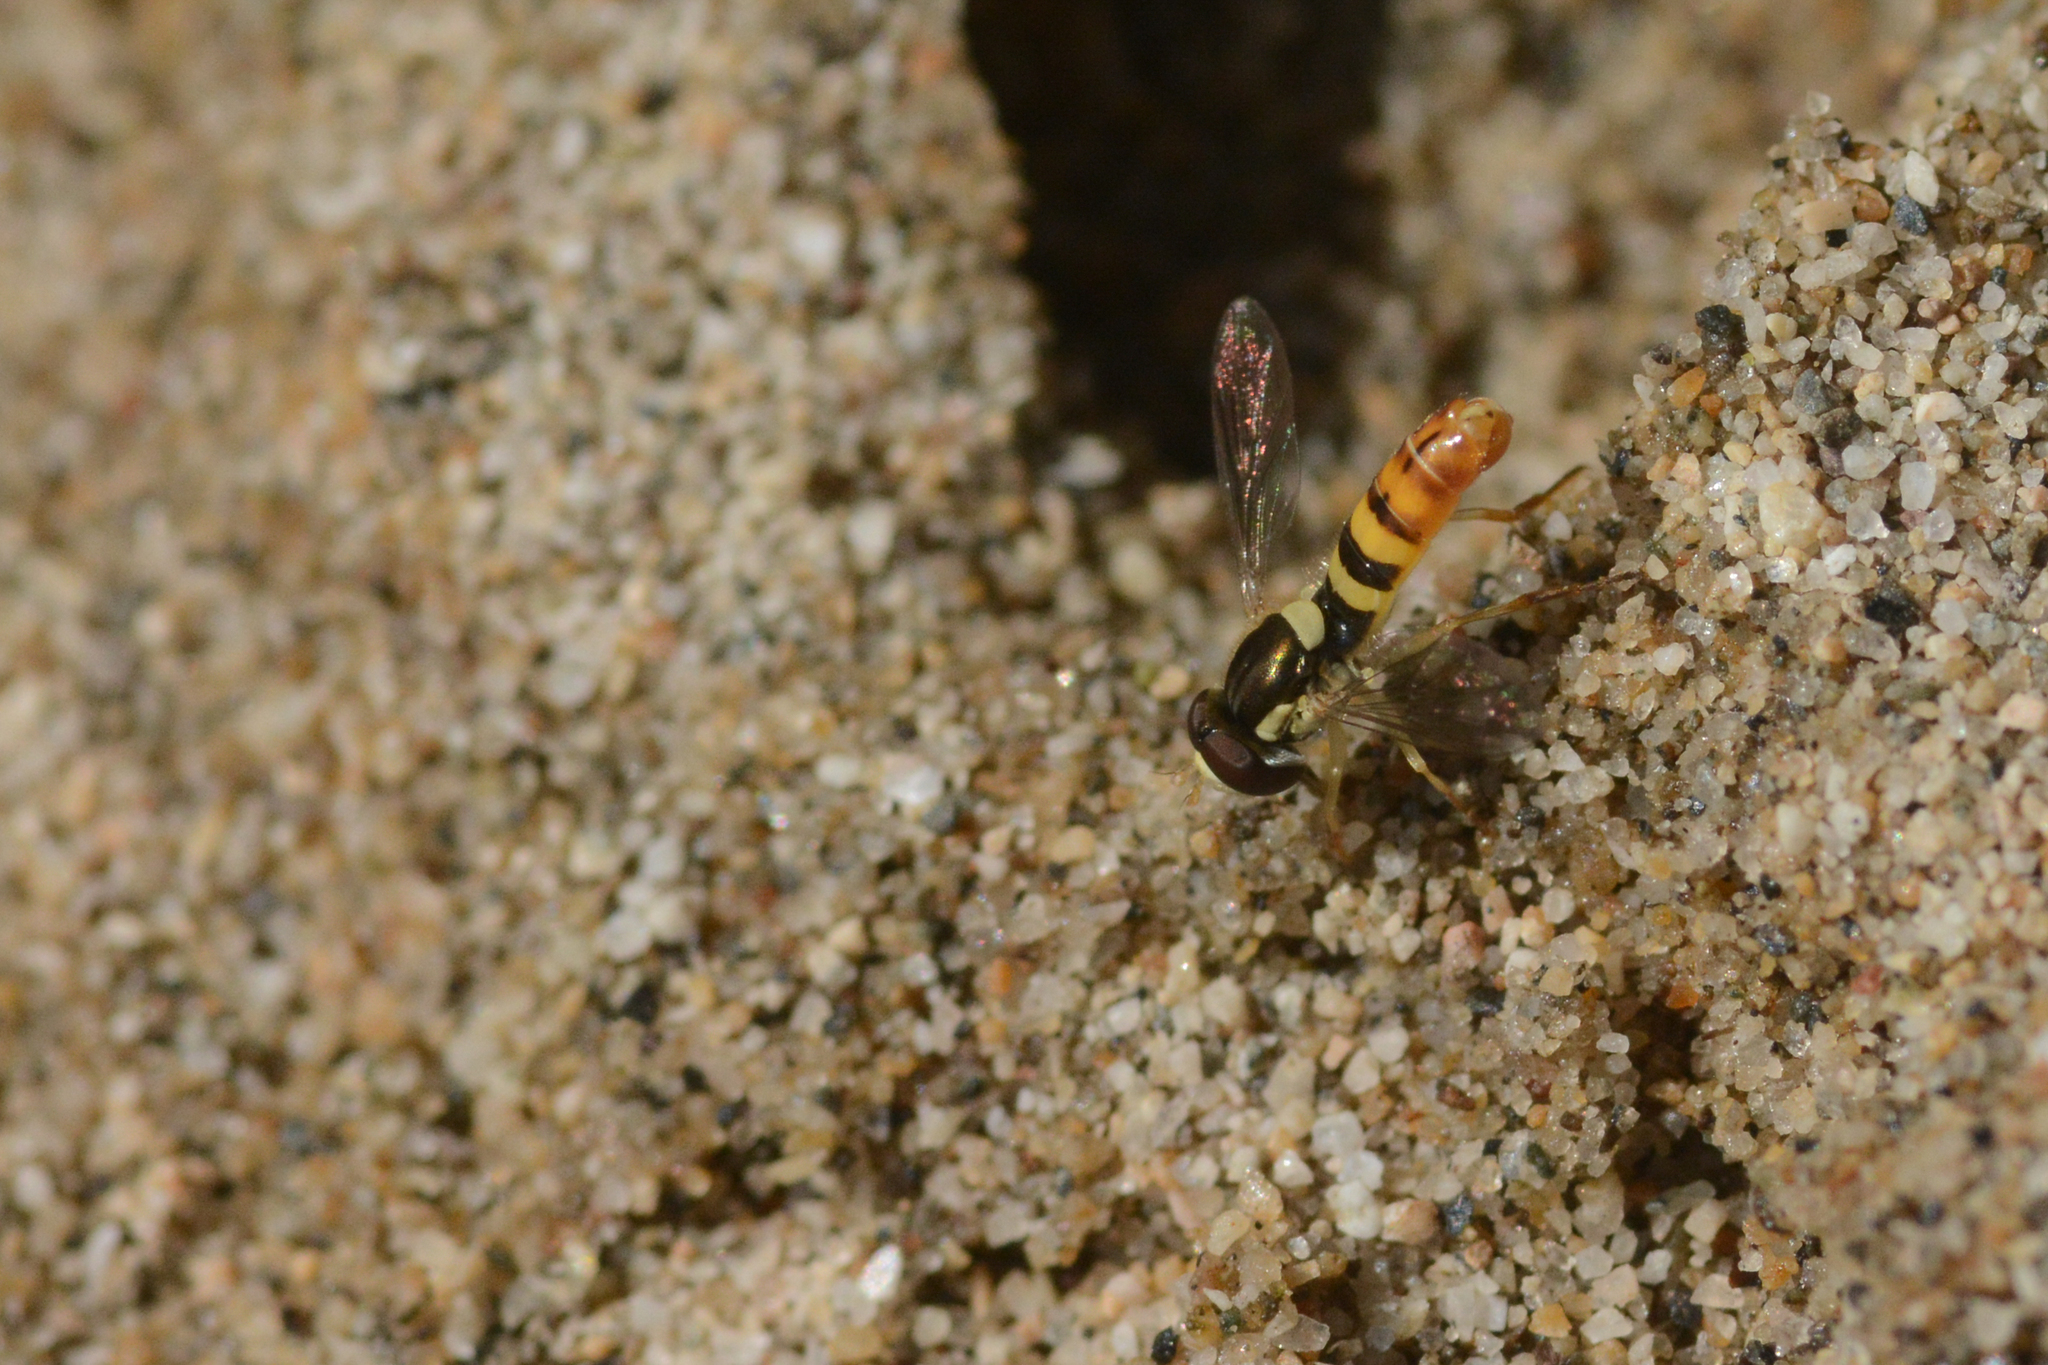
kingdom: Animalia
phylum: Arthropoda
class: Insecta
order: Diptera
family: Syrphidae
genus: Sphaerophoria
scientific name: Sphaerophoria sulphuripes
